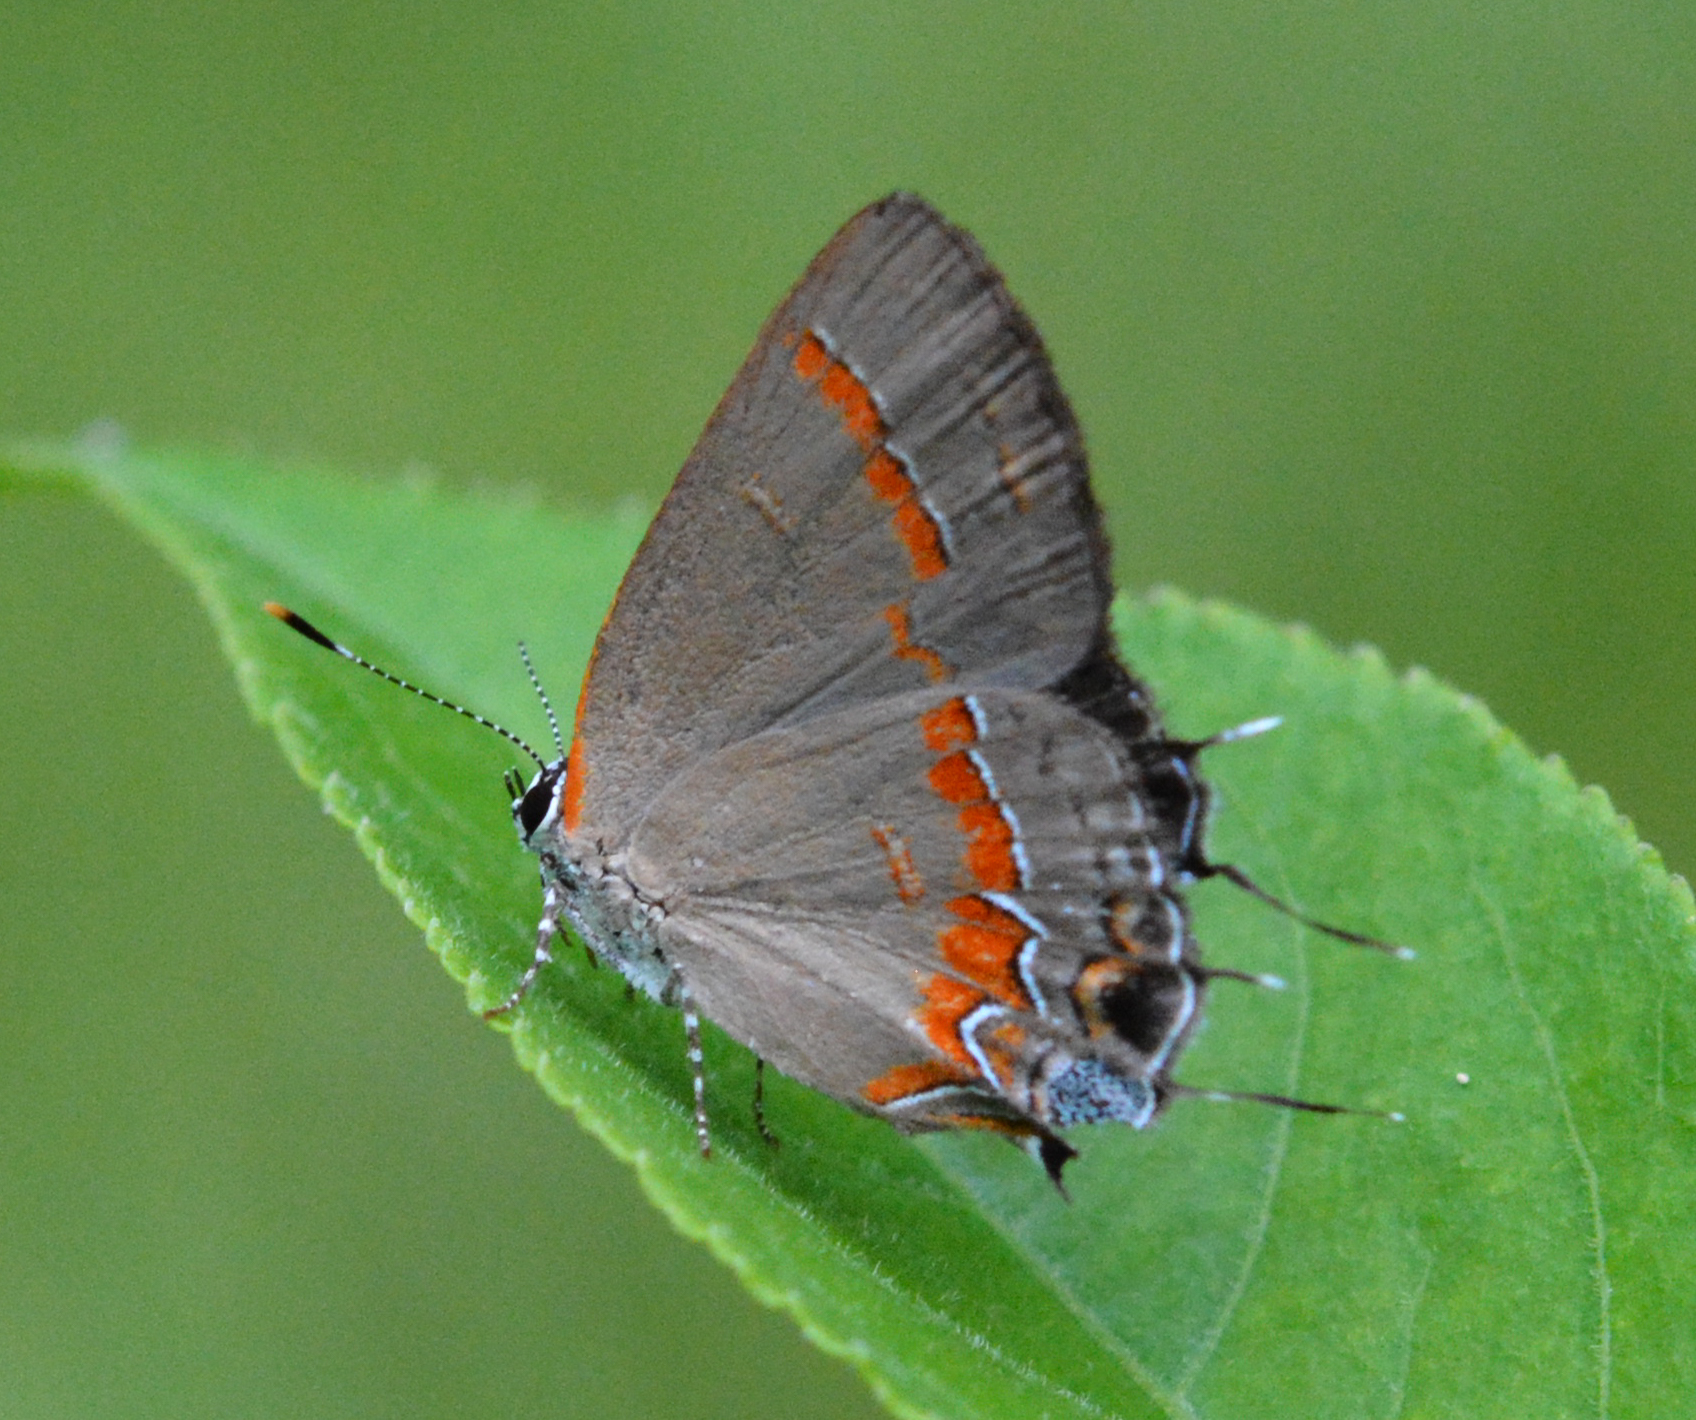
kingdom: Animalia
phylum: Arthropoda
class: Insecta
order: Lepidoptera
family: Lycaenidae
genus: Calycopis
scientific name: Calycopis cecrops
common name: Red-banded hairstreak
